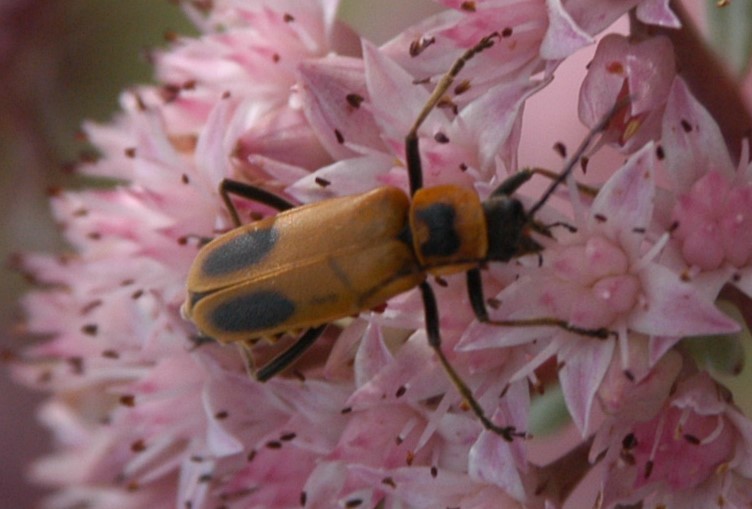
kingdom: Animalia
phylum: Arthropoda
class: Insecta
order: Coleoptera
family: Cantharidae
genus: Chauliognathus
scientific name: Chauliognathus pensylvanicus
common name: Goldenrod soldier beetle
